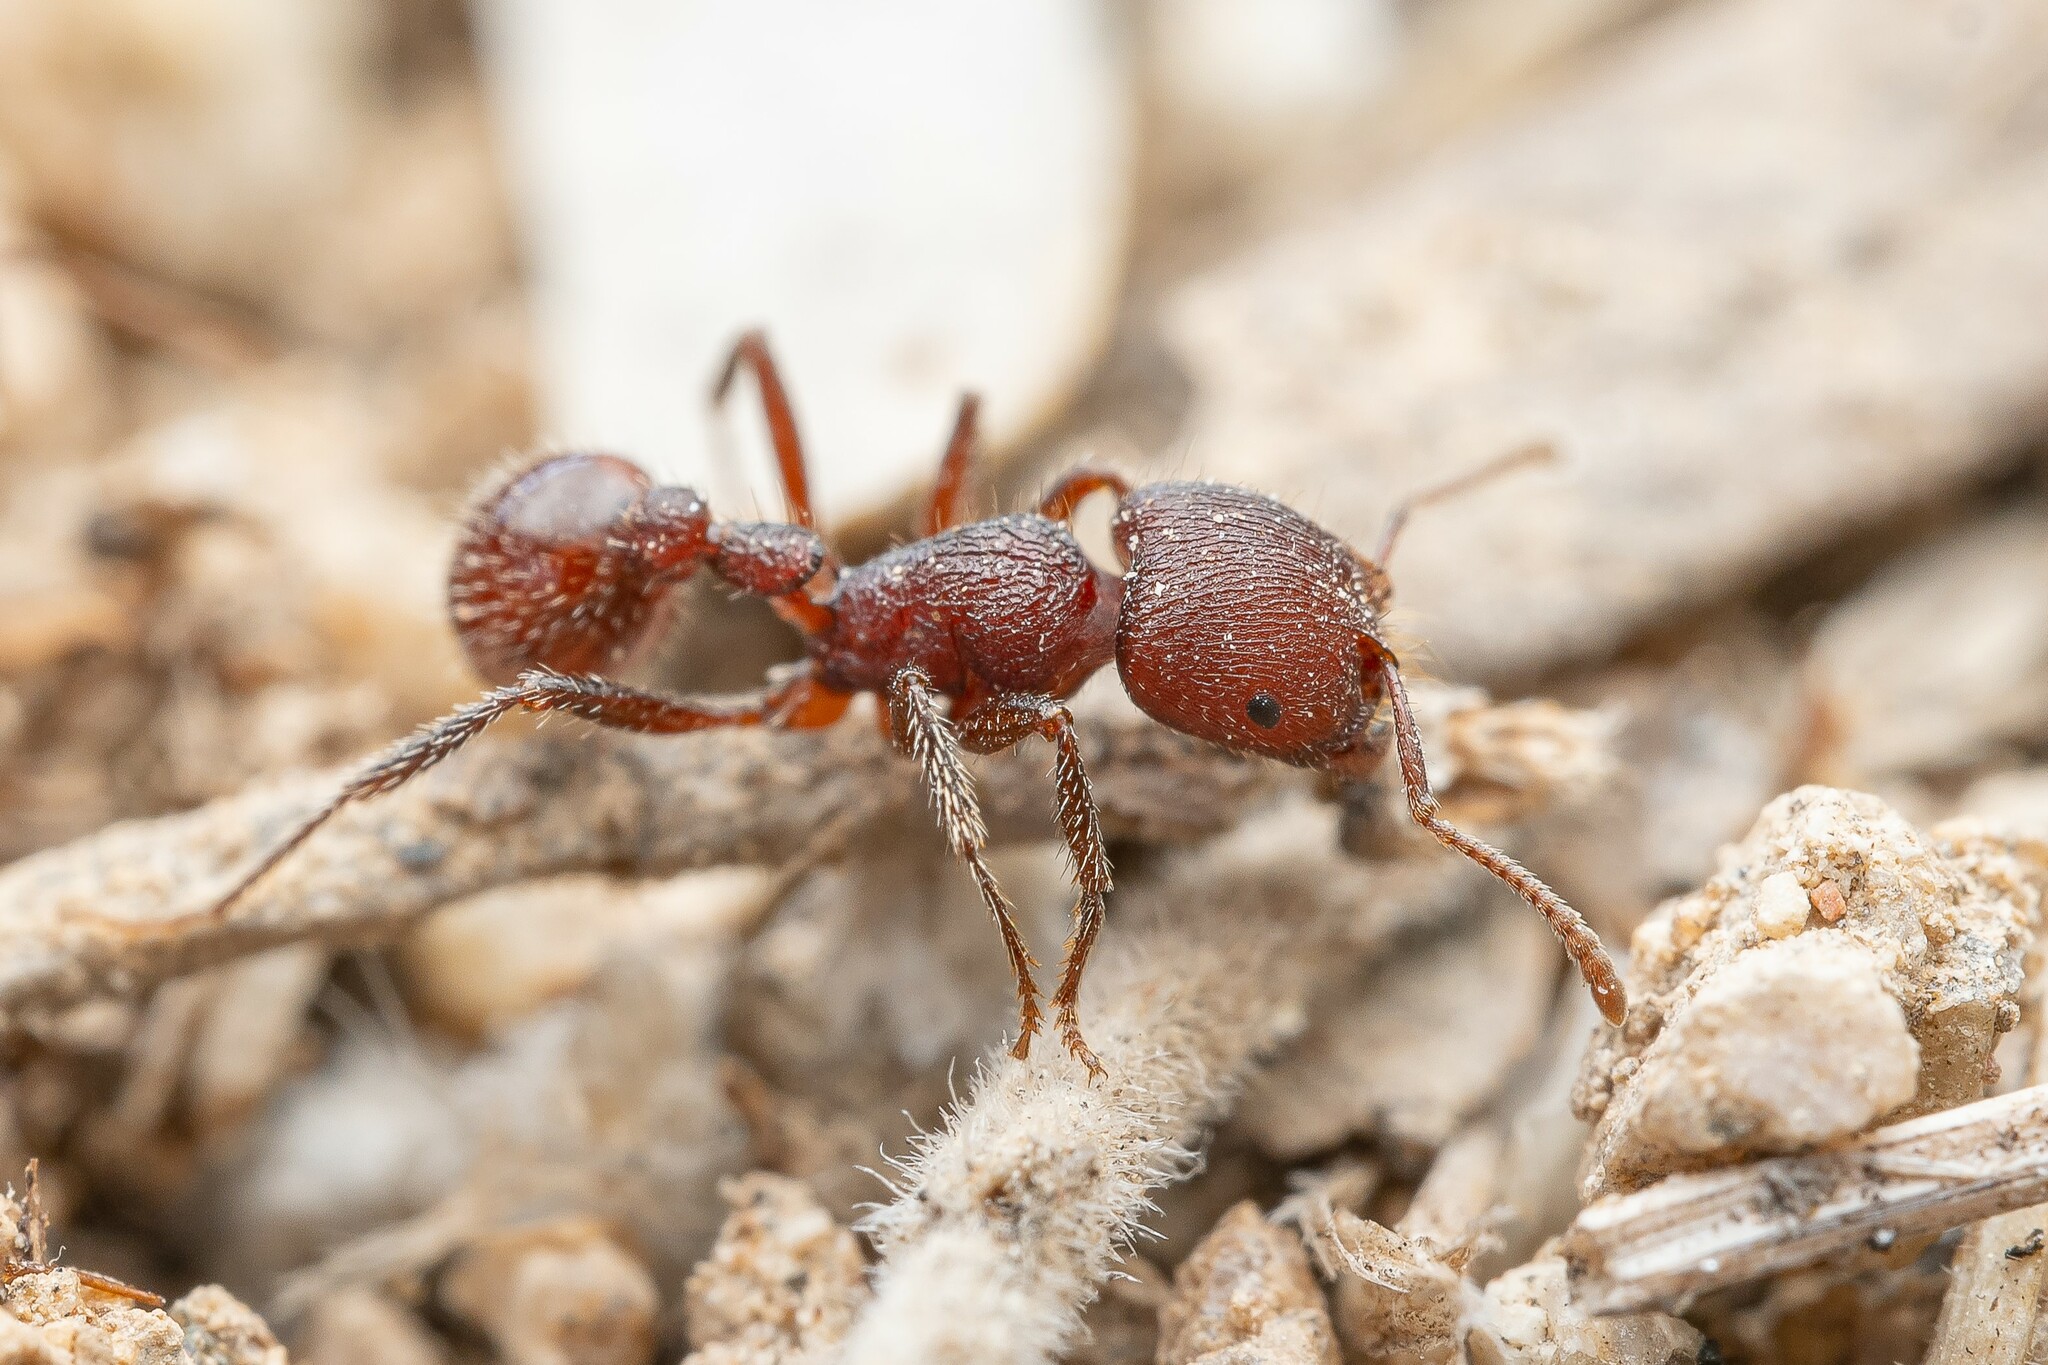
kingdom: Animalia
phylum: Arthropoda
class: Insecta
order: Hymenoptera
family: Formicidae
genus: Pogonomyrmex
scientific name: Pogonomyrmex huachucanus
